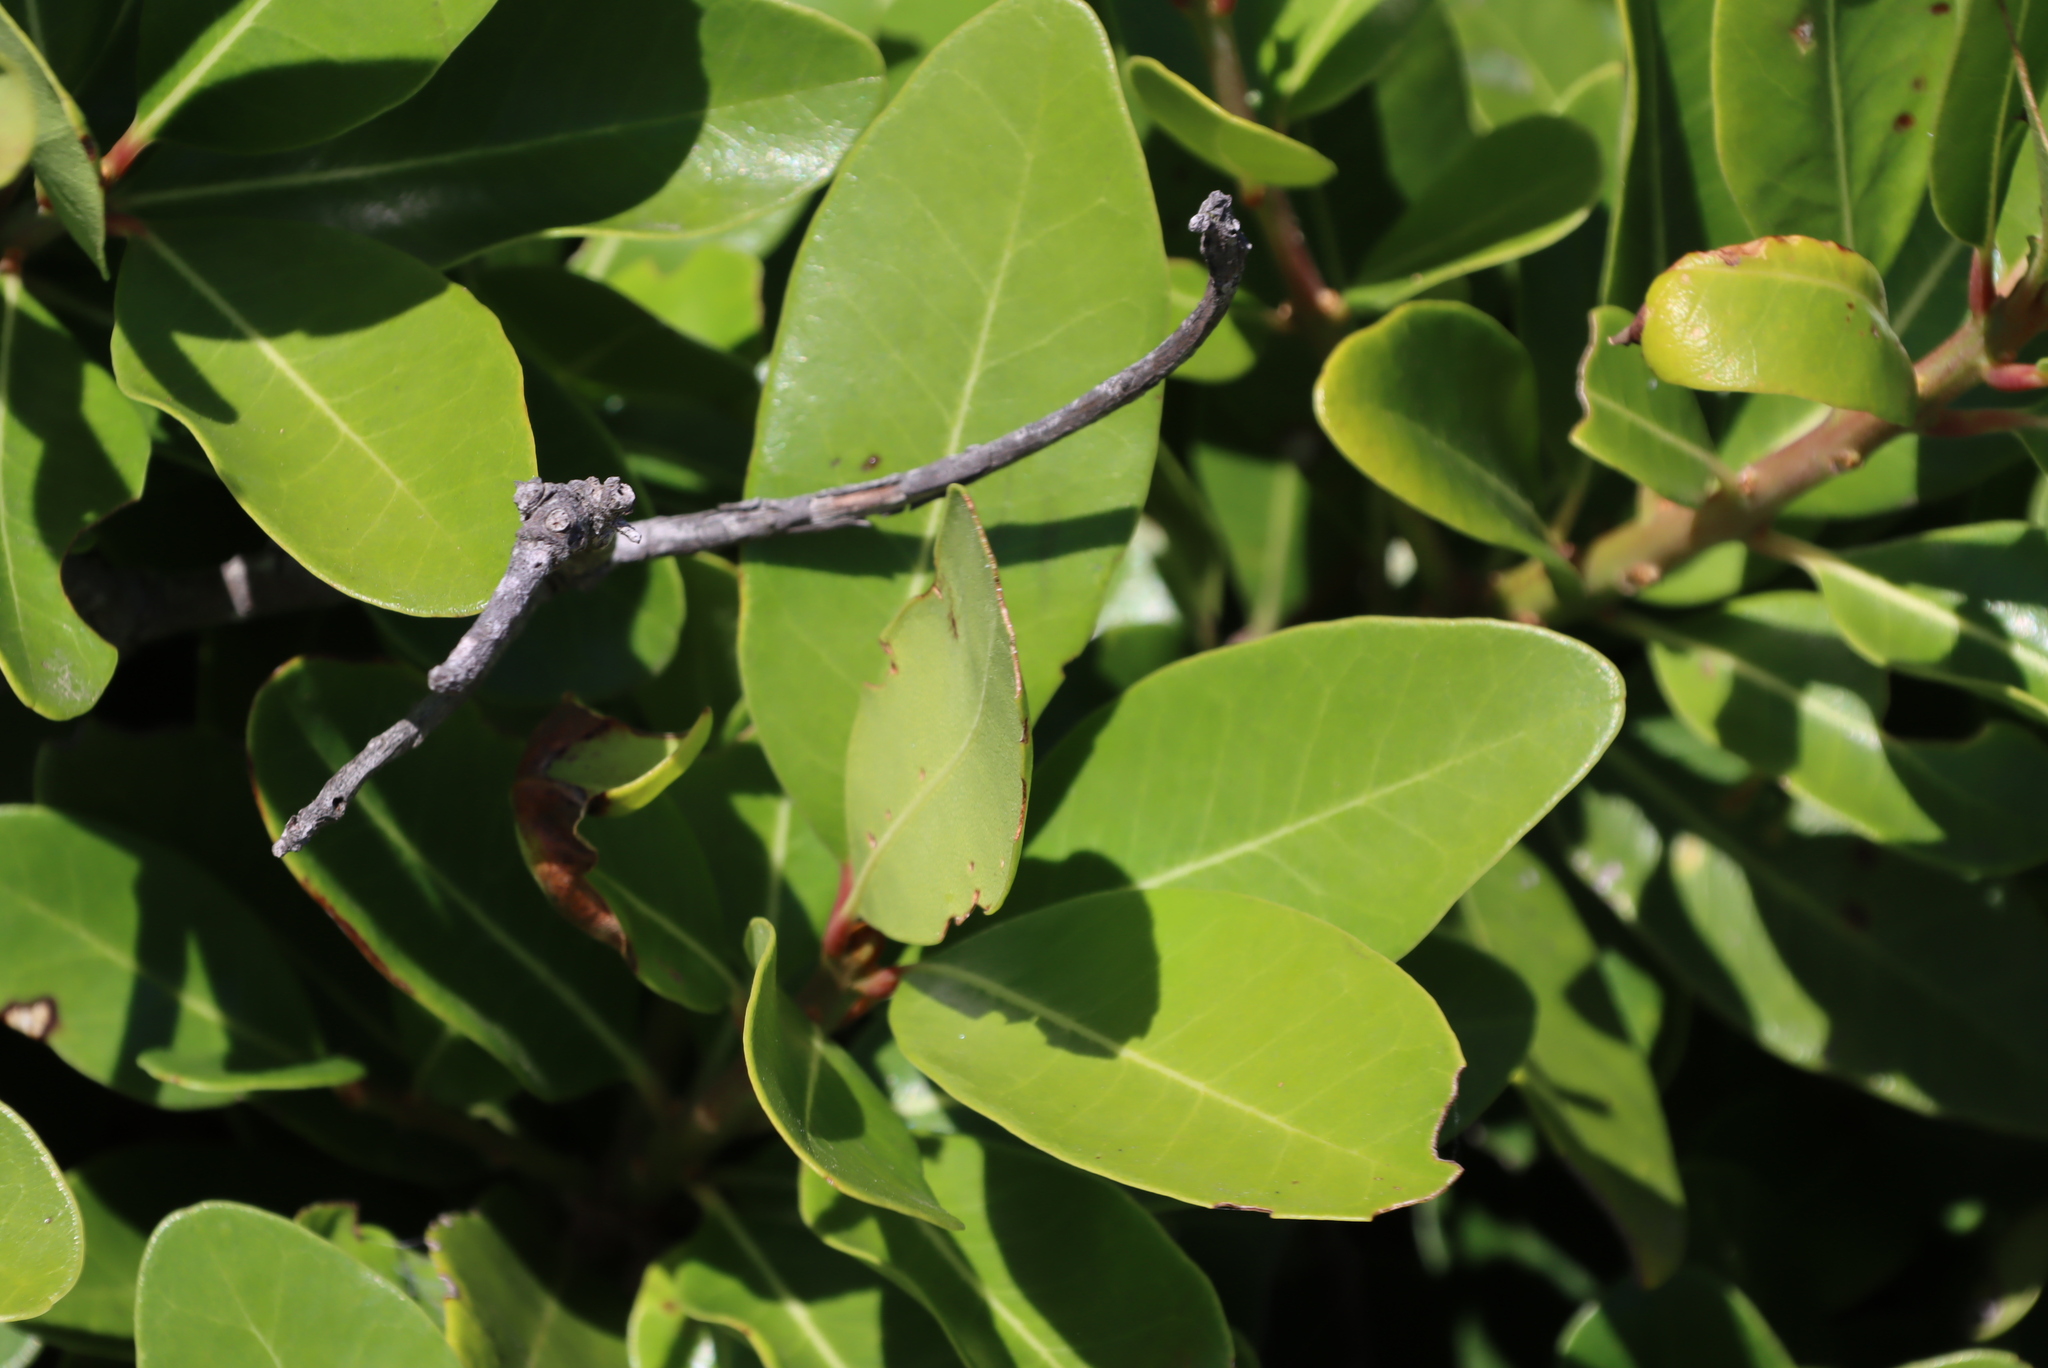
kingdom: Plantae
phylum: Tracheophyta
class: Magnoliopsida
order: Ericales
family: Sapotaceae
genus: Sideroxylon
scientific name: Sideroxylon inerme
